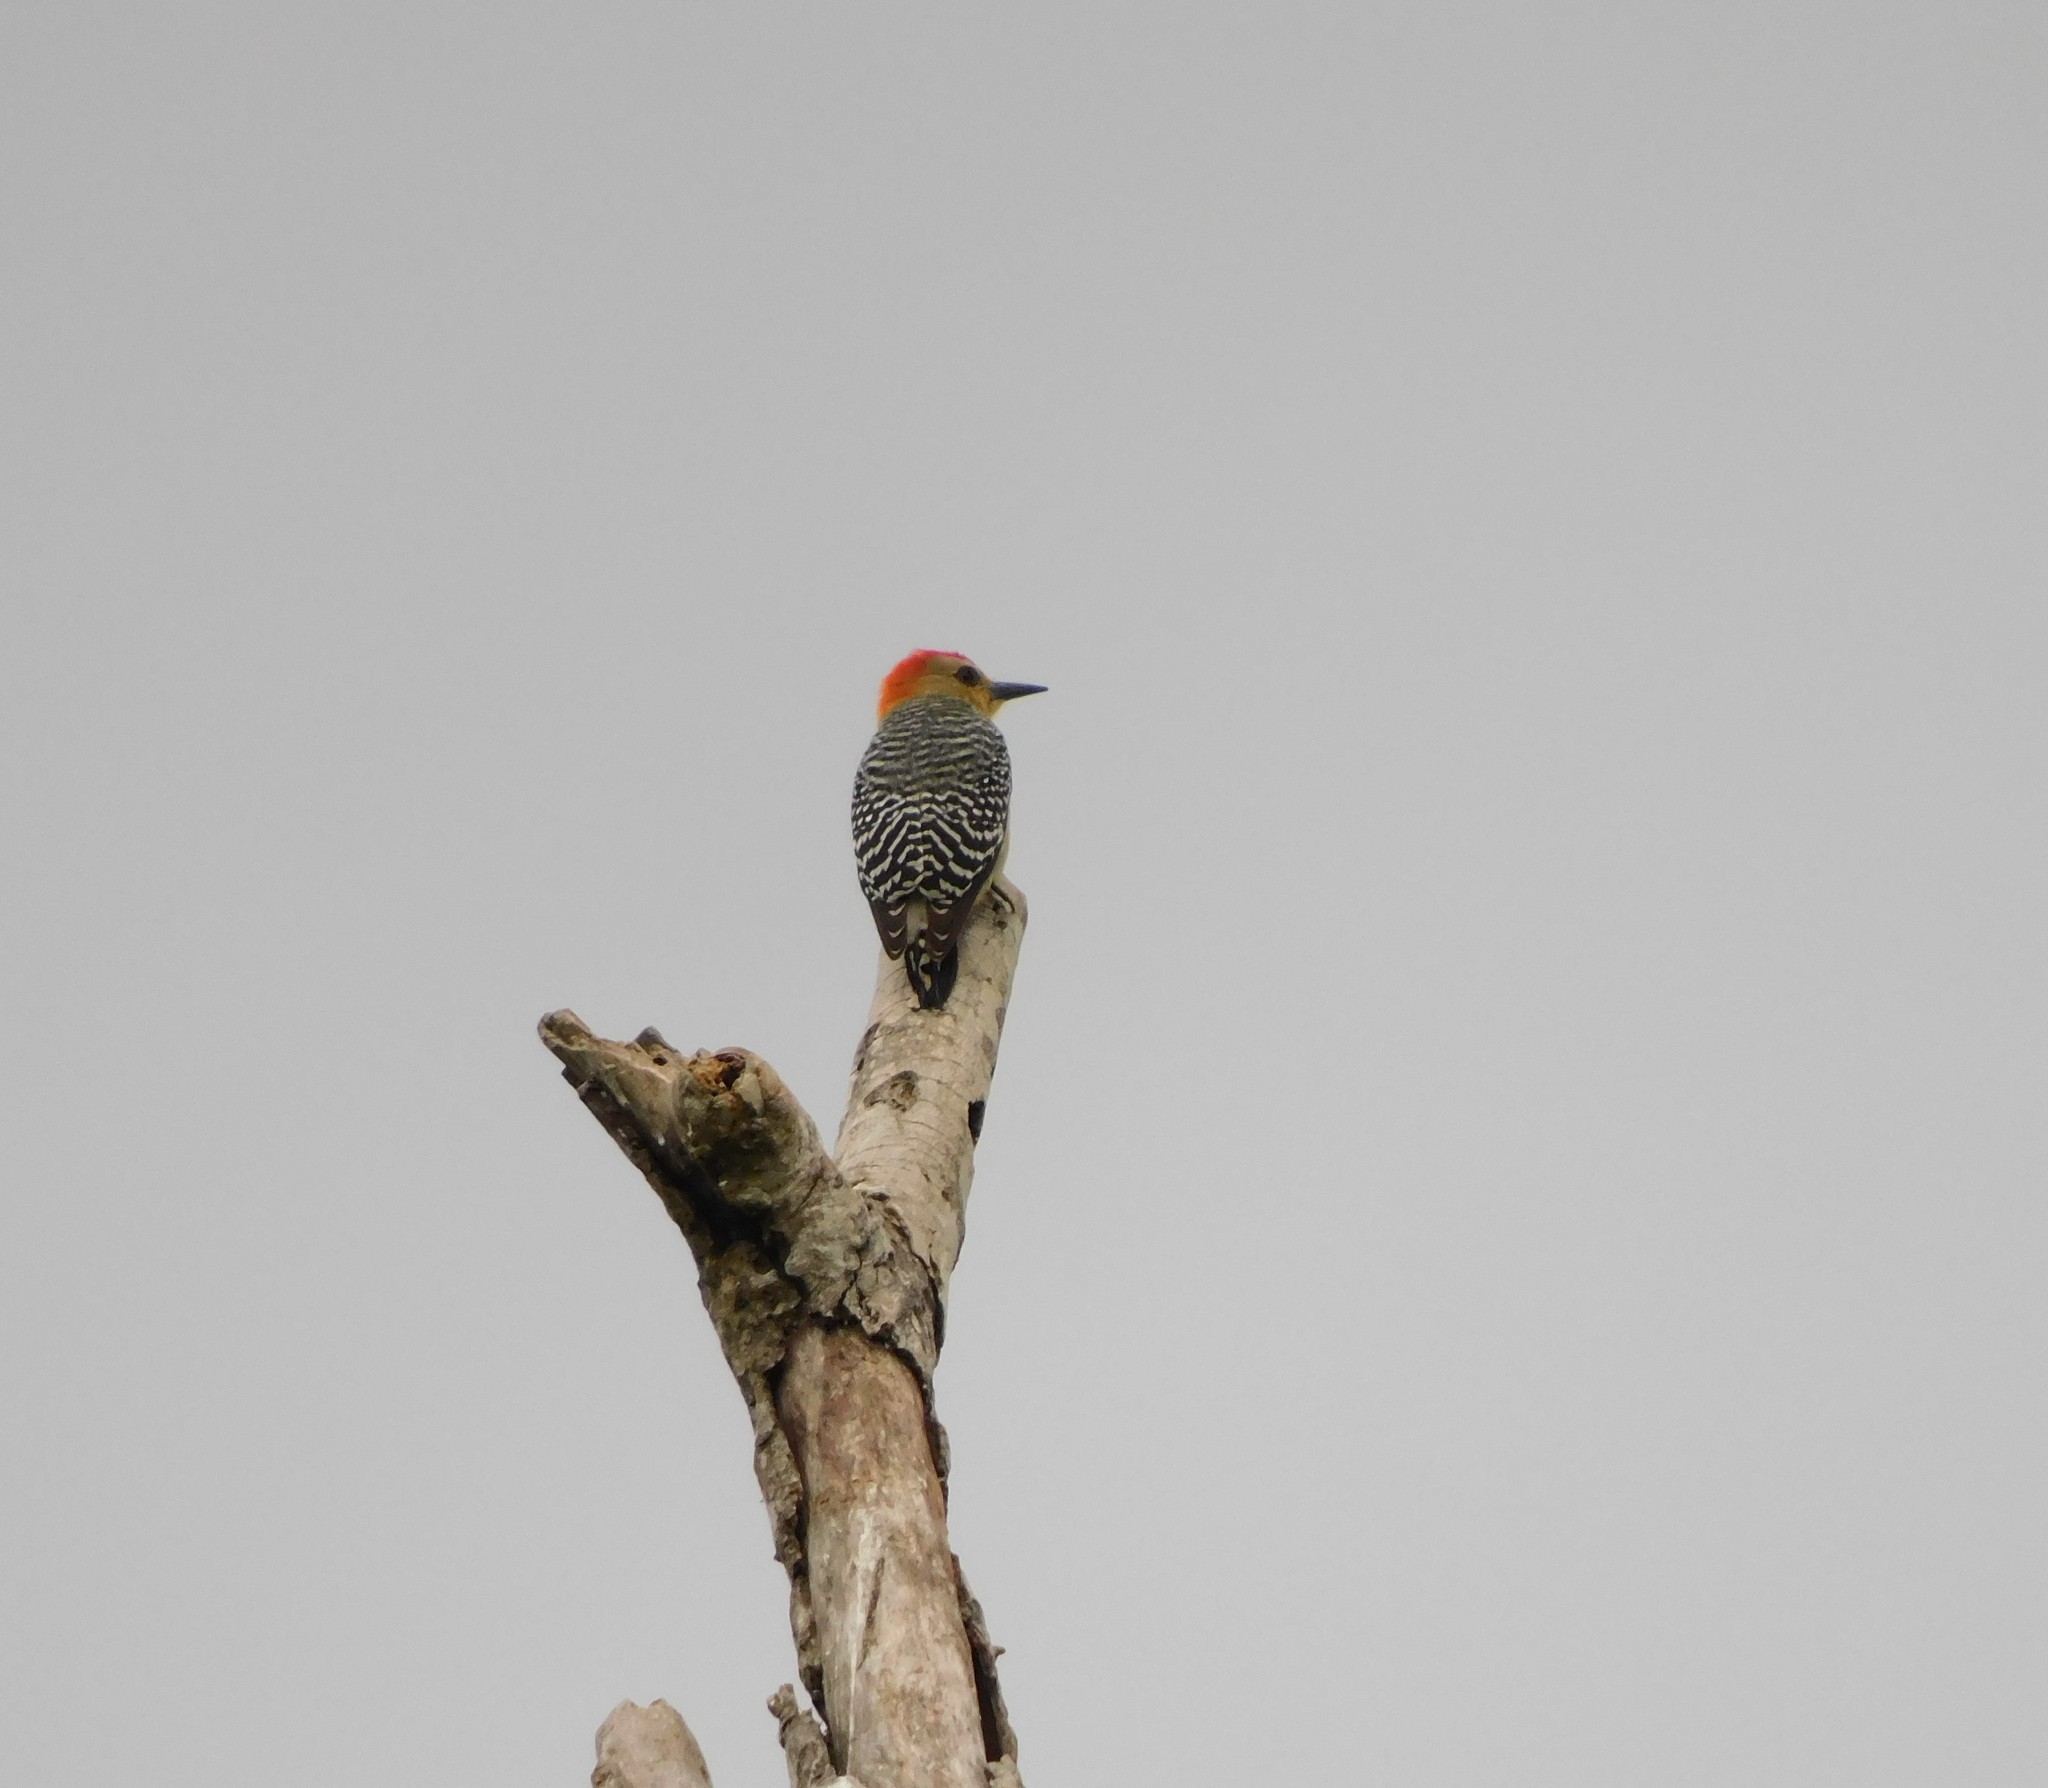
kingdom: Animalia
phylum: Chordata
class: Aves
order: Piciformes
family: Picidae
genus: Melanerpes
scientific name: Melanerpes rubricapillus
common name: Red-crowned woodpecker
